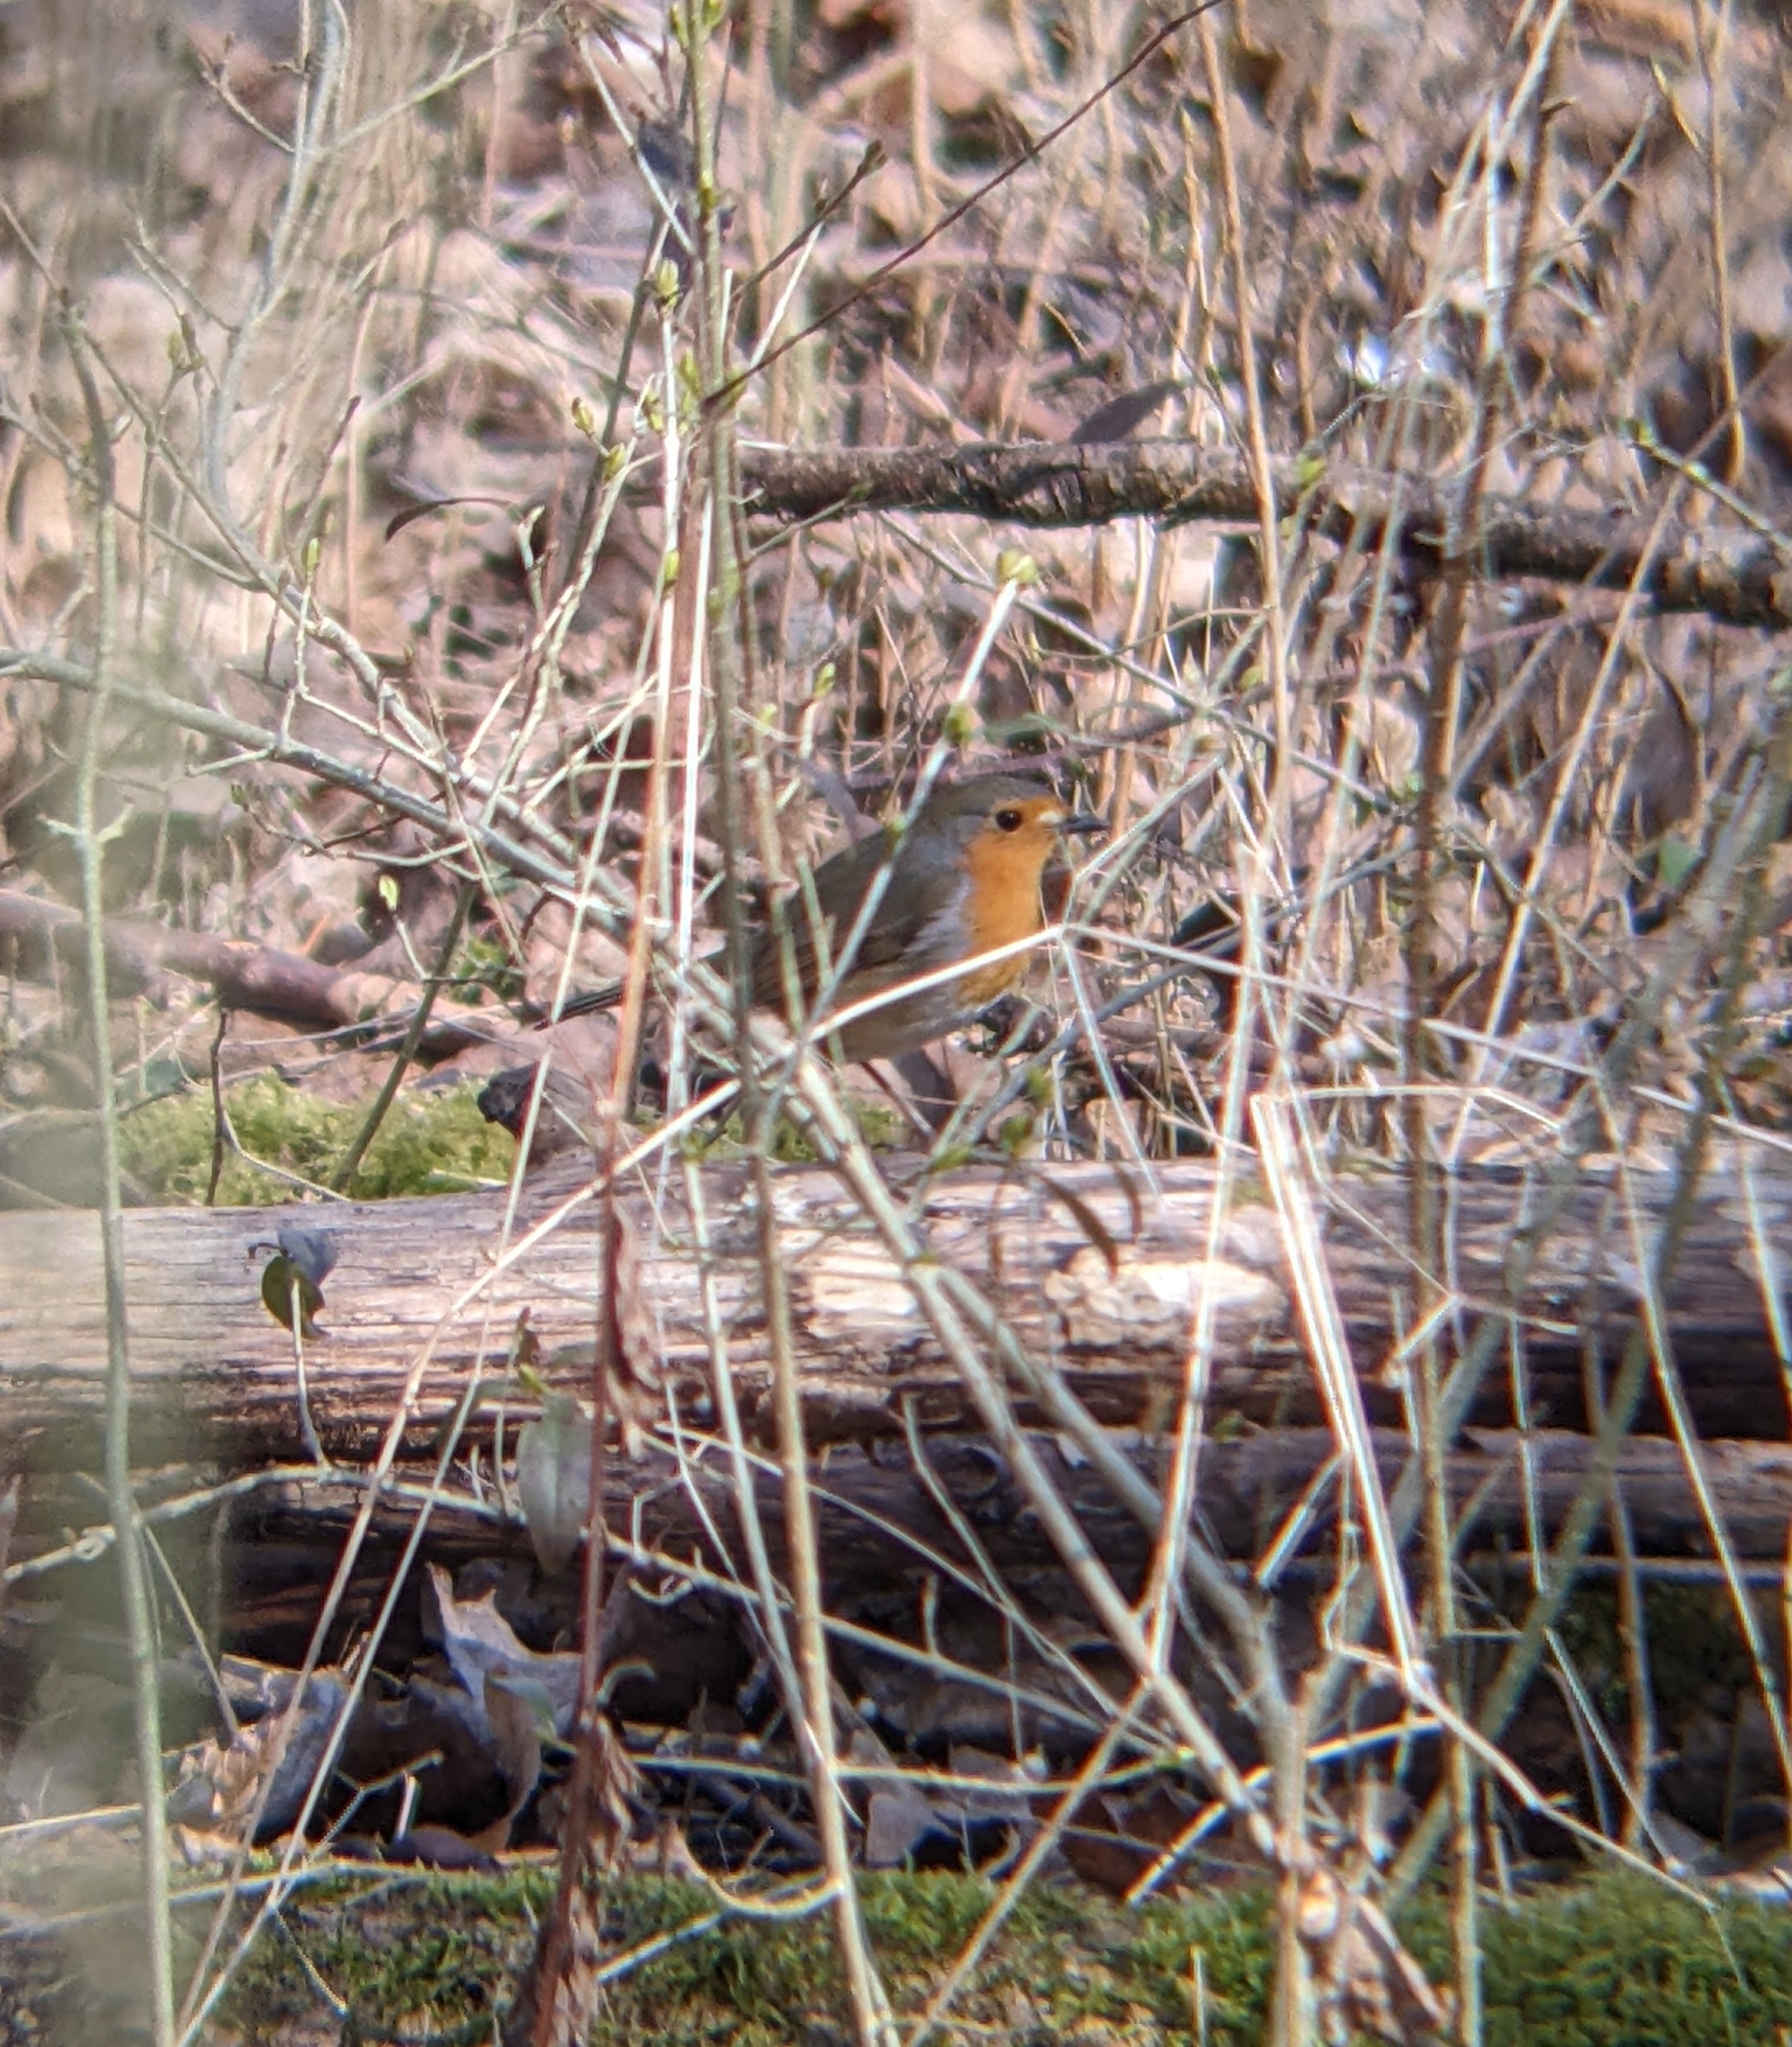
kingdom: Animalia
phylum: Chordata
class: Aves
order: Passeriformes
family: Muscicapidae
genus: Erithacus
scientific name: Erithacus rubecula
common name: European robin
